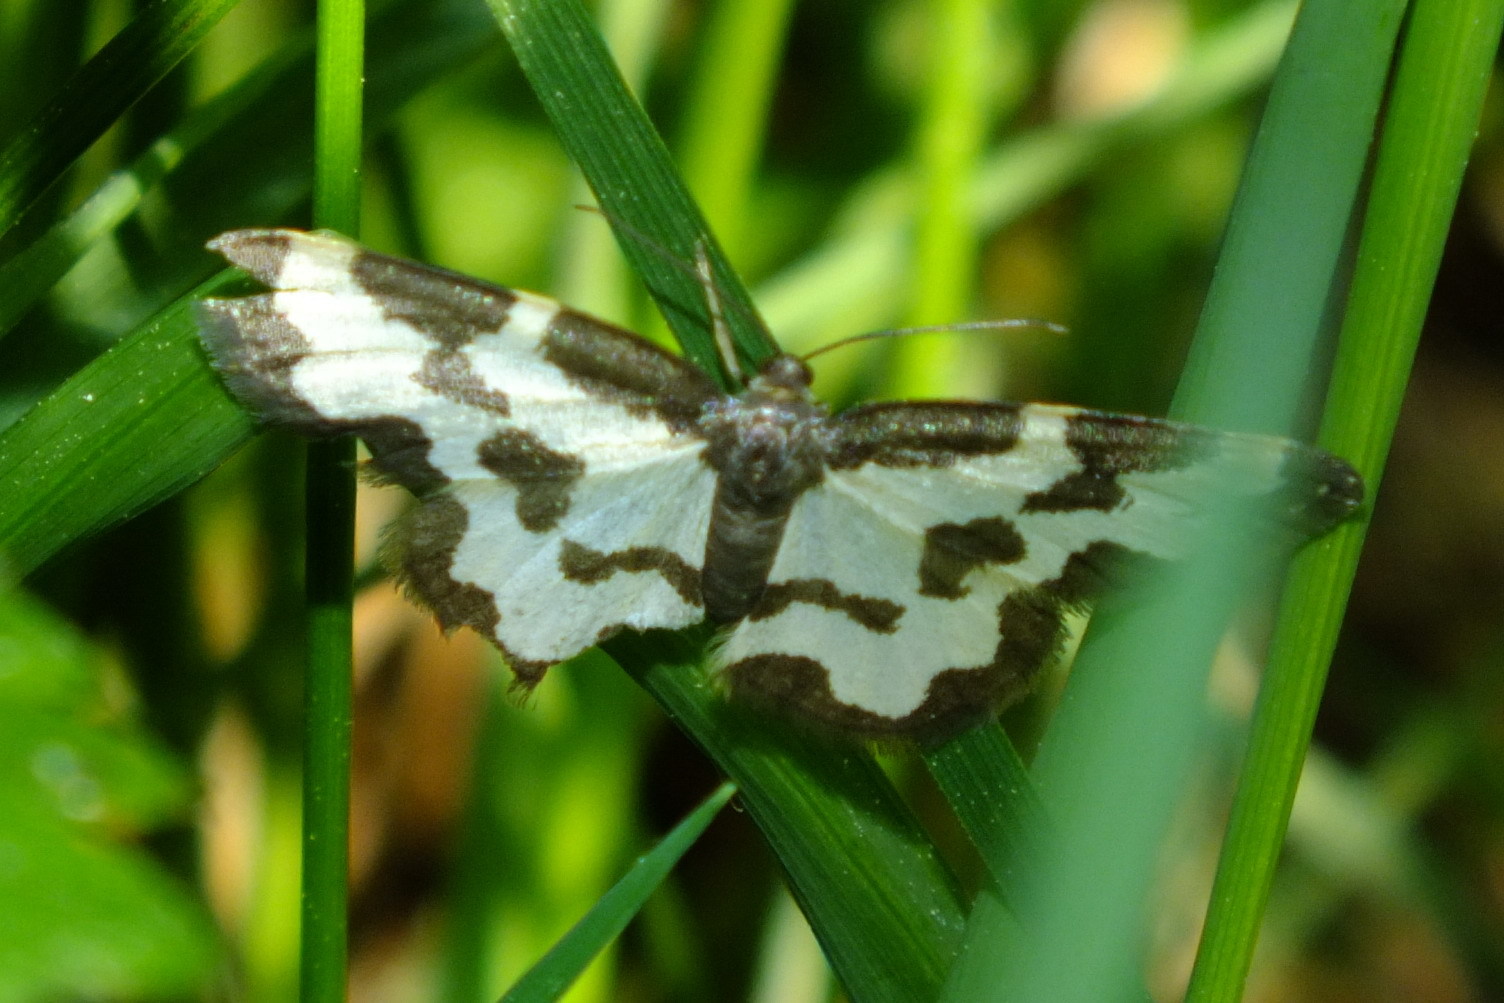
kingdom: Animalia
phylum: Arthropoda
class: Insecta
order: Lepidoptera
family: Geometridae
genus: Lomaspilis
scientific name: Lomaspilis marginata
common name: Clouded border
